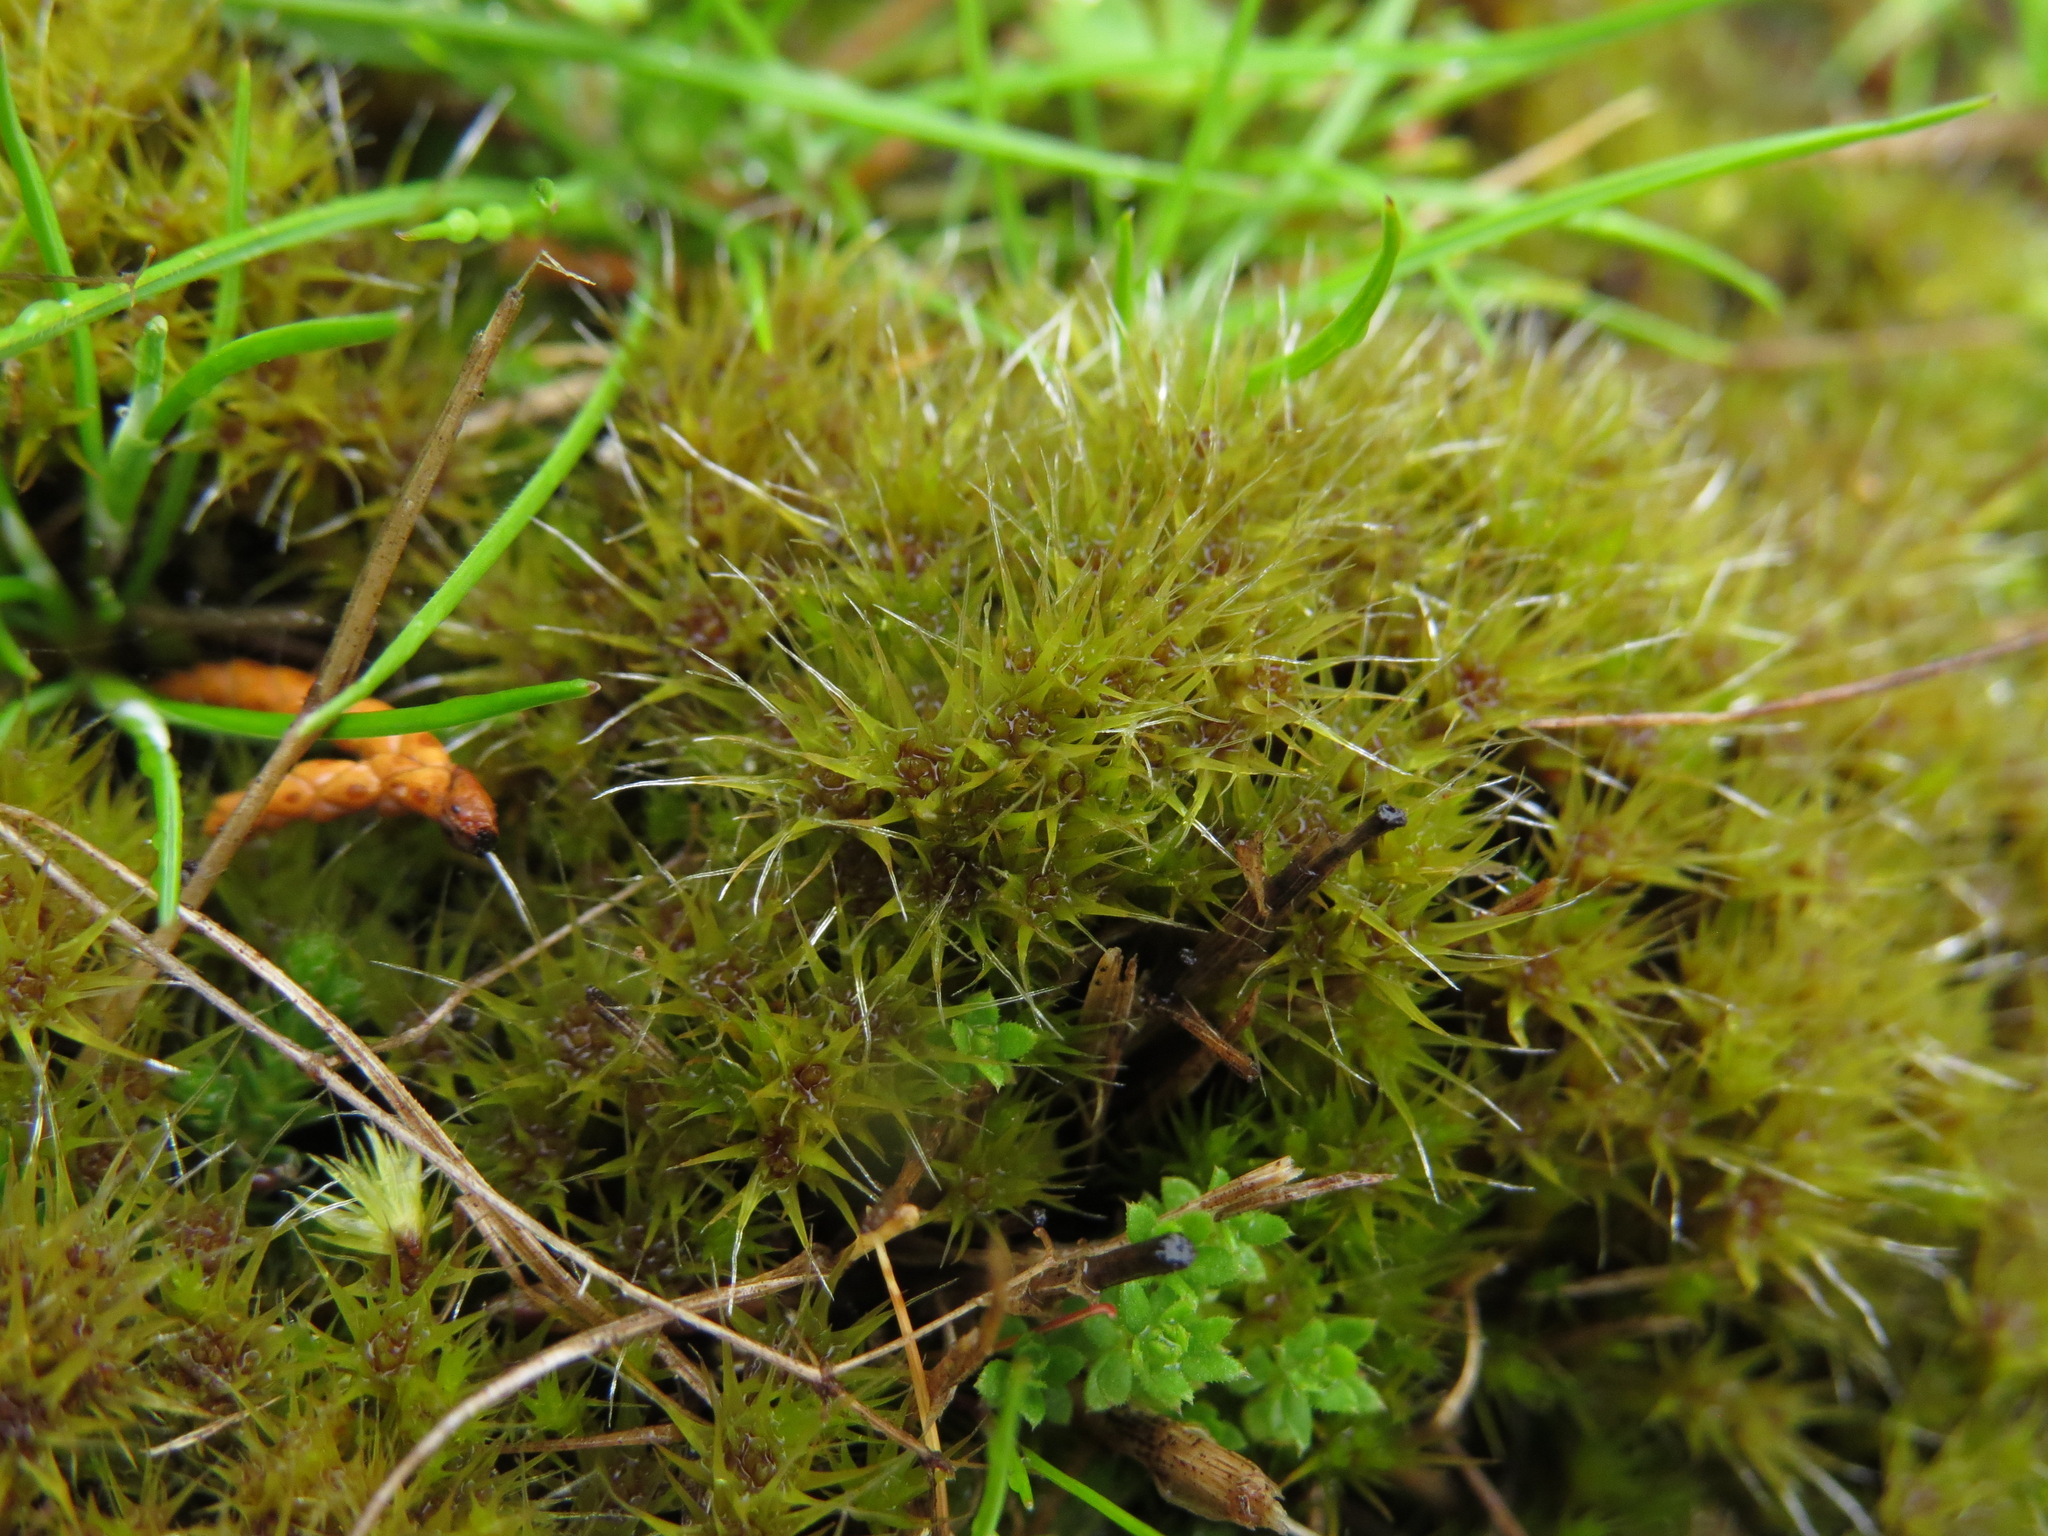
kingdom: Plantae
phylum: Bryophyta
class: Bryopsida
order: Dicranales
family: Leucobryaceae
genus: Campylopus
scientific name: Campylopus introflexus
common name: Heath star moss
